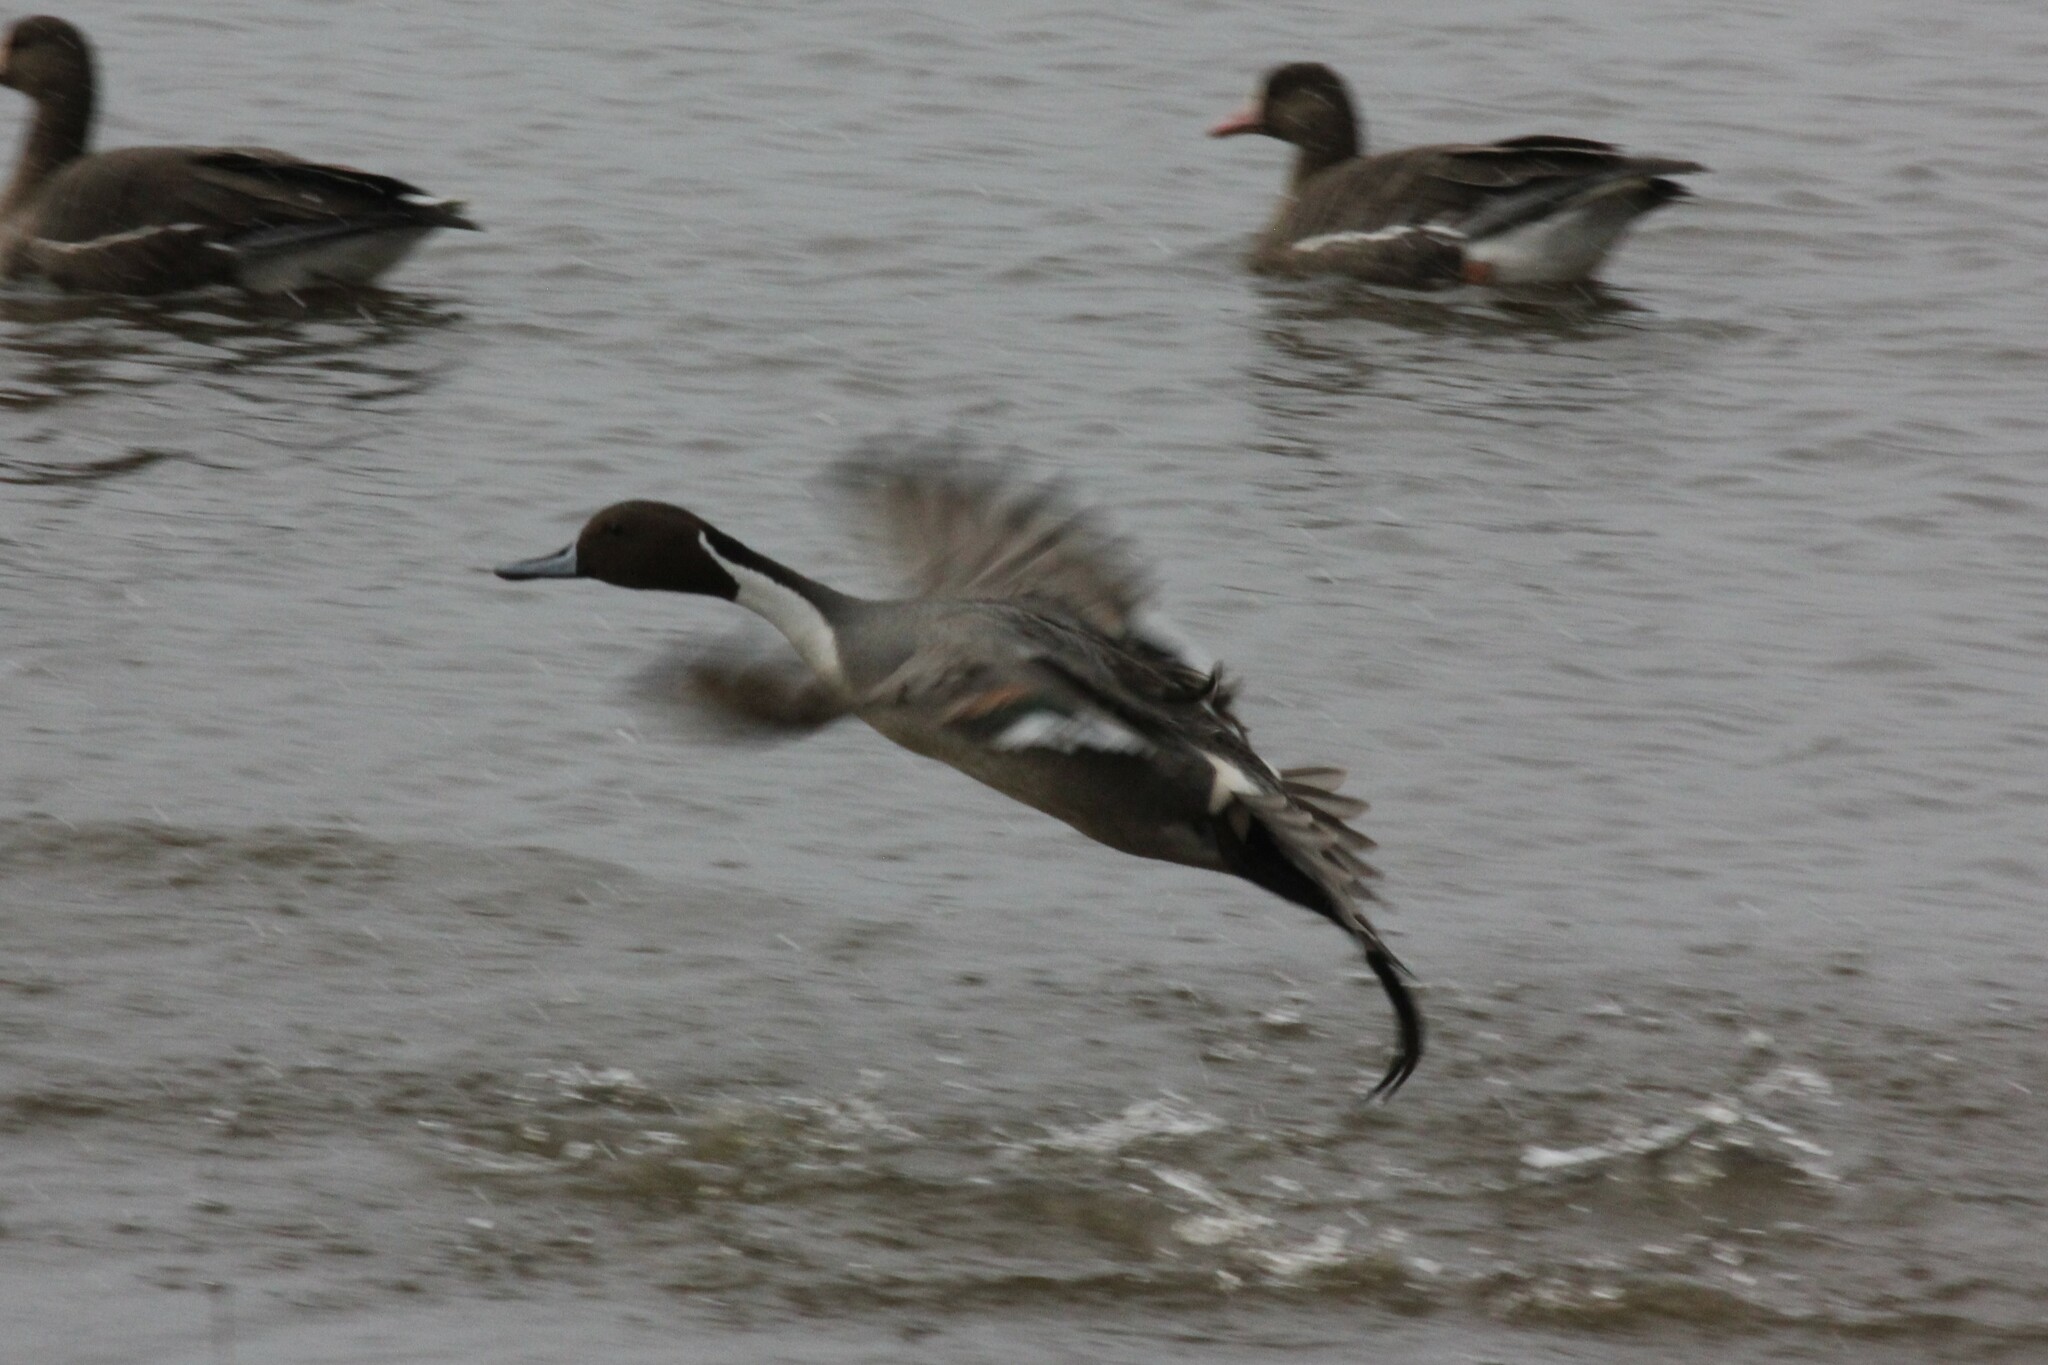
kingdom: Animalia
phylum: Chordata
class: Aves
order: Anseriformes
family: Anatidae
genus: Anas
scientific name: Anas acuta
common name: Northern pintail
